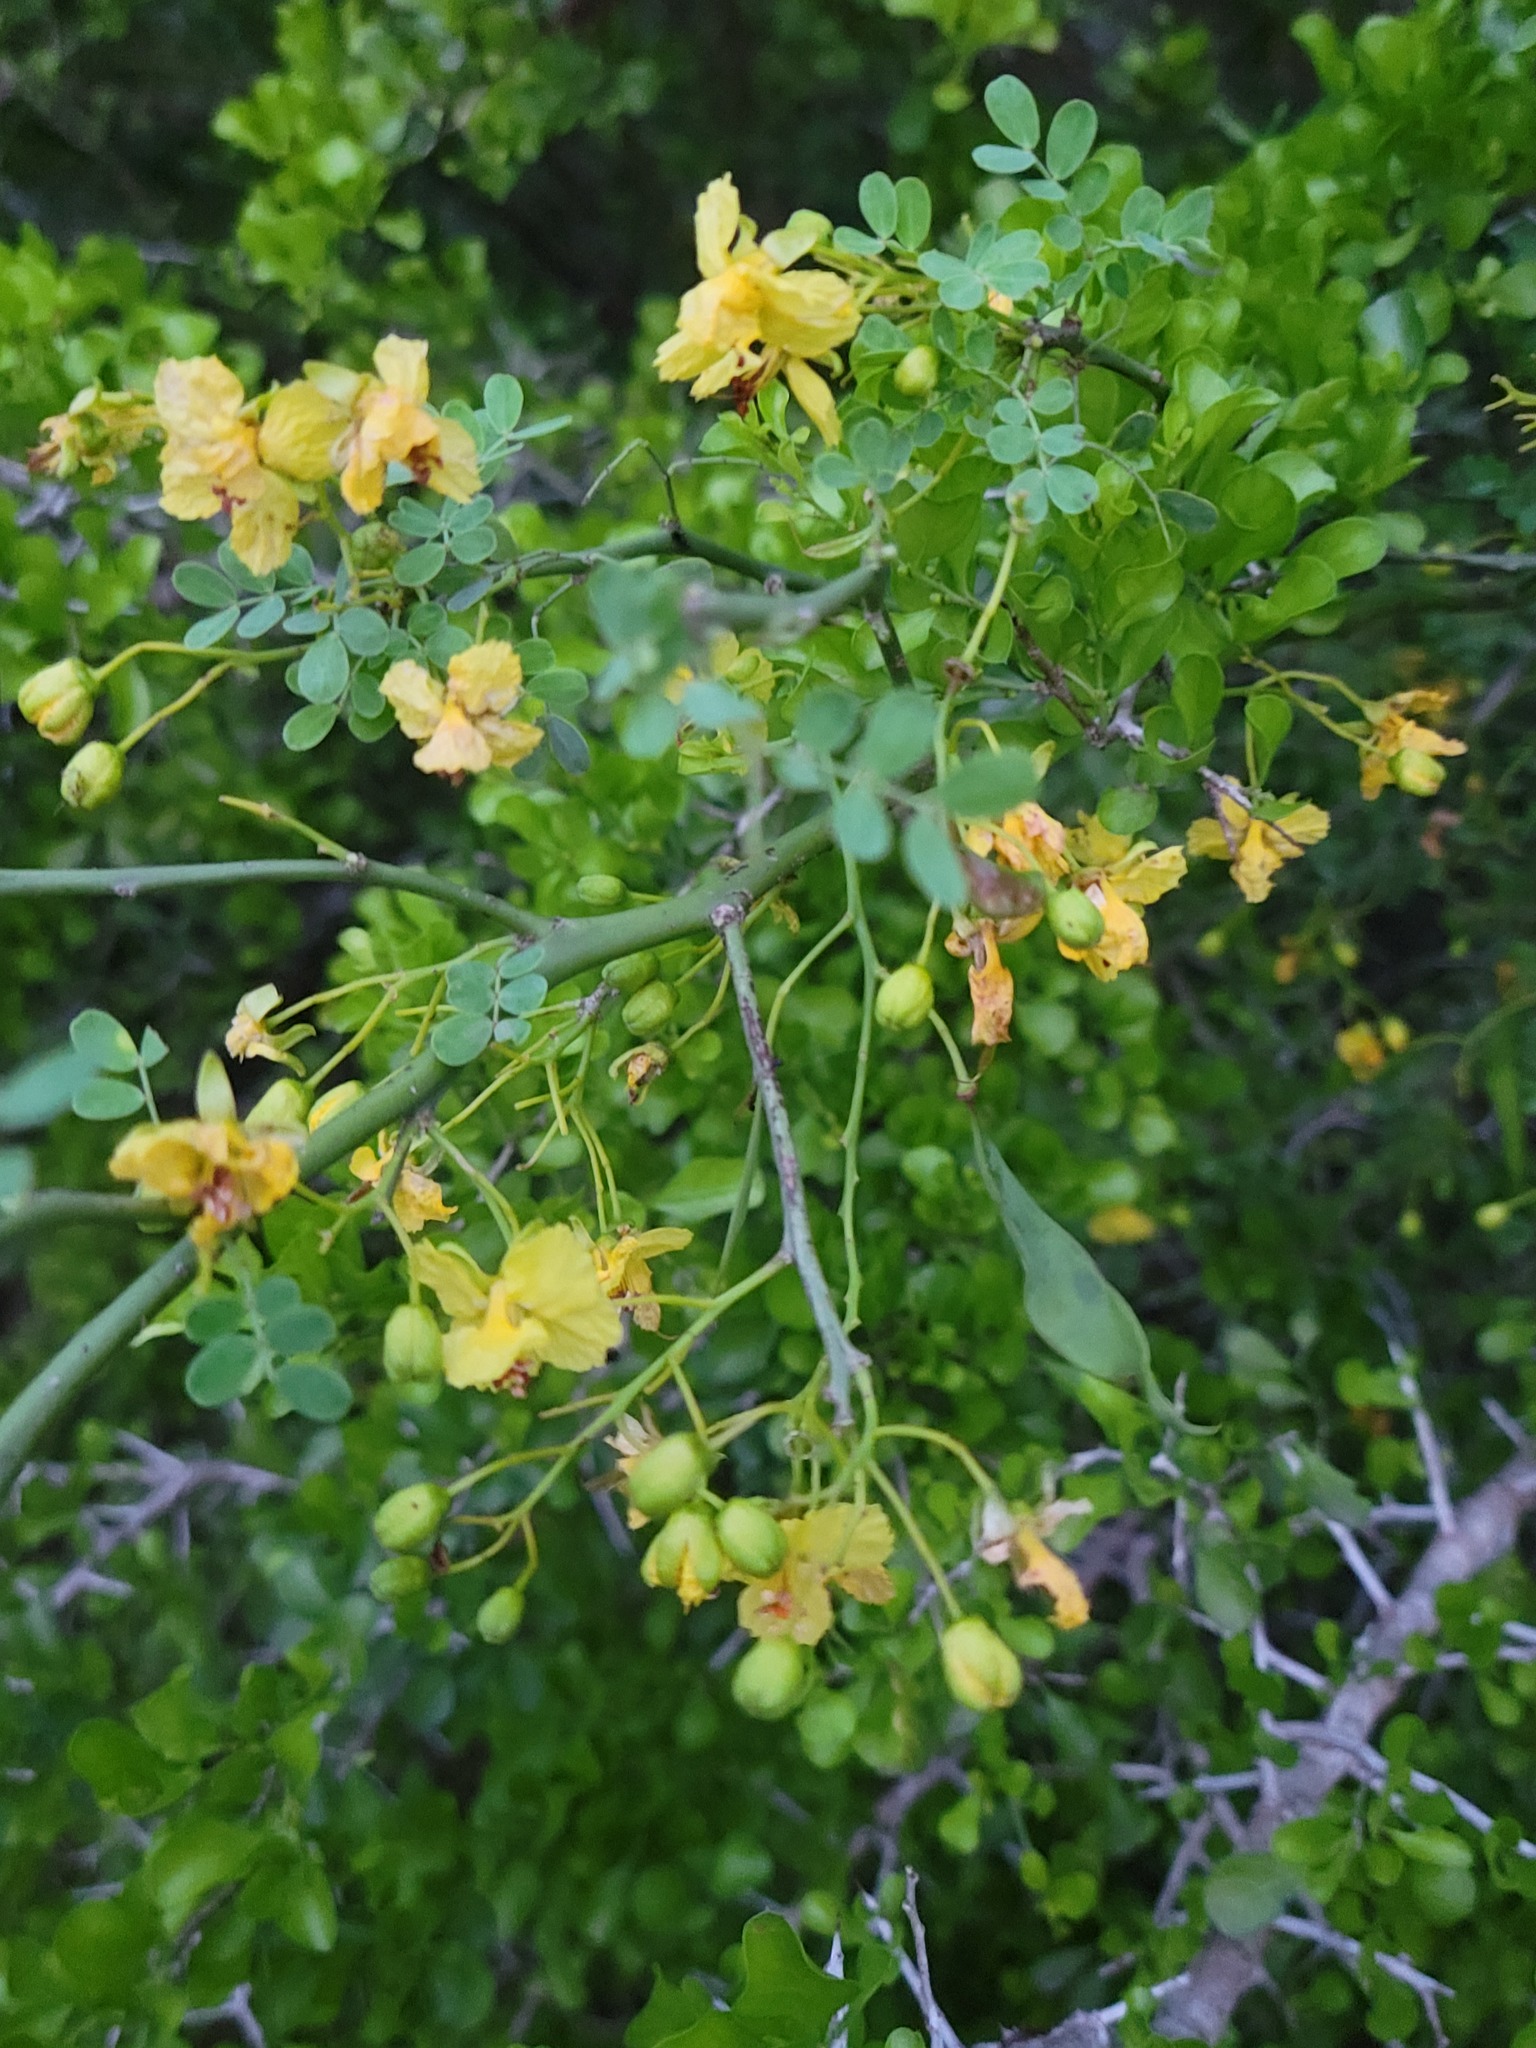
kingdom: Plantae
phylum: Tracheophyta
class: Magnoliopsida
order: Fabales
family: Fabaceae
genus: Parkinsonia
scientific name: Parkinsonia texana
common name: Texas paloverde
